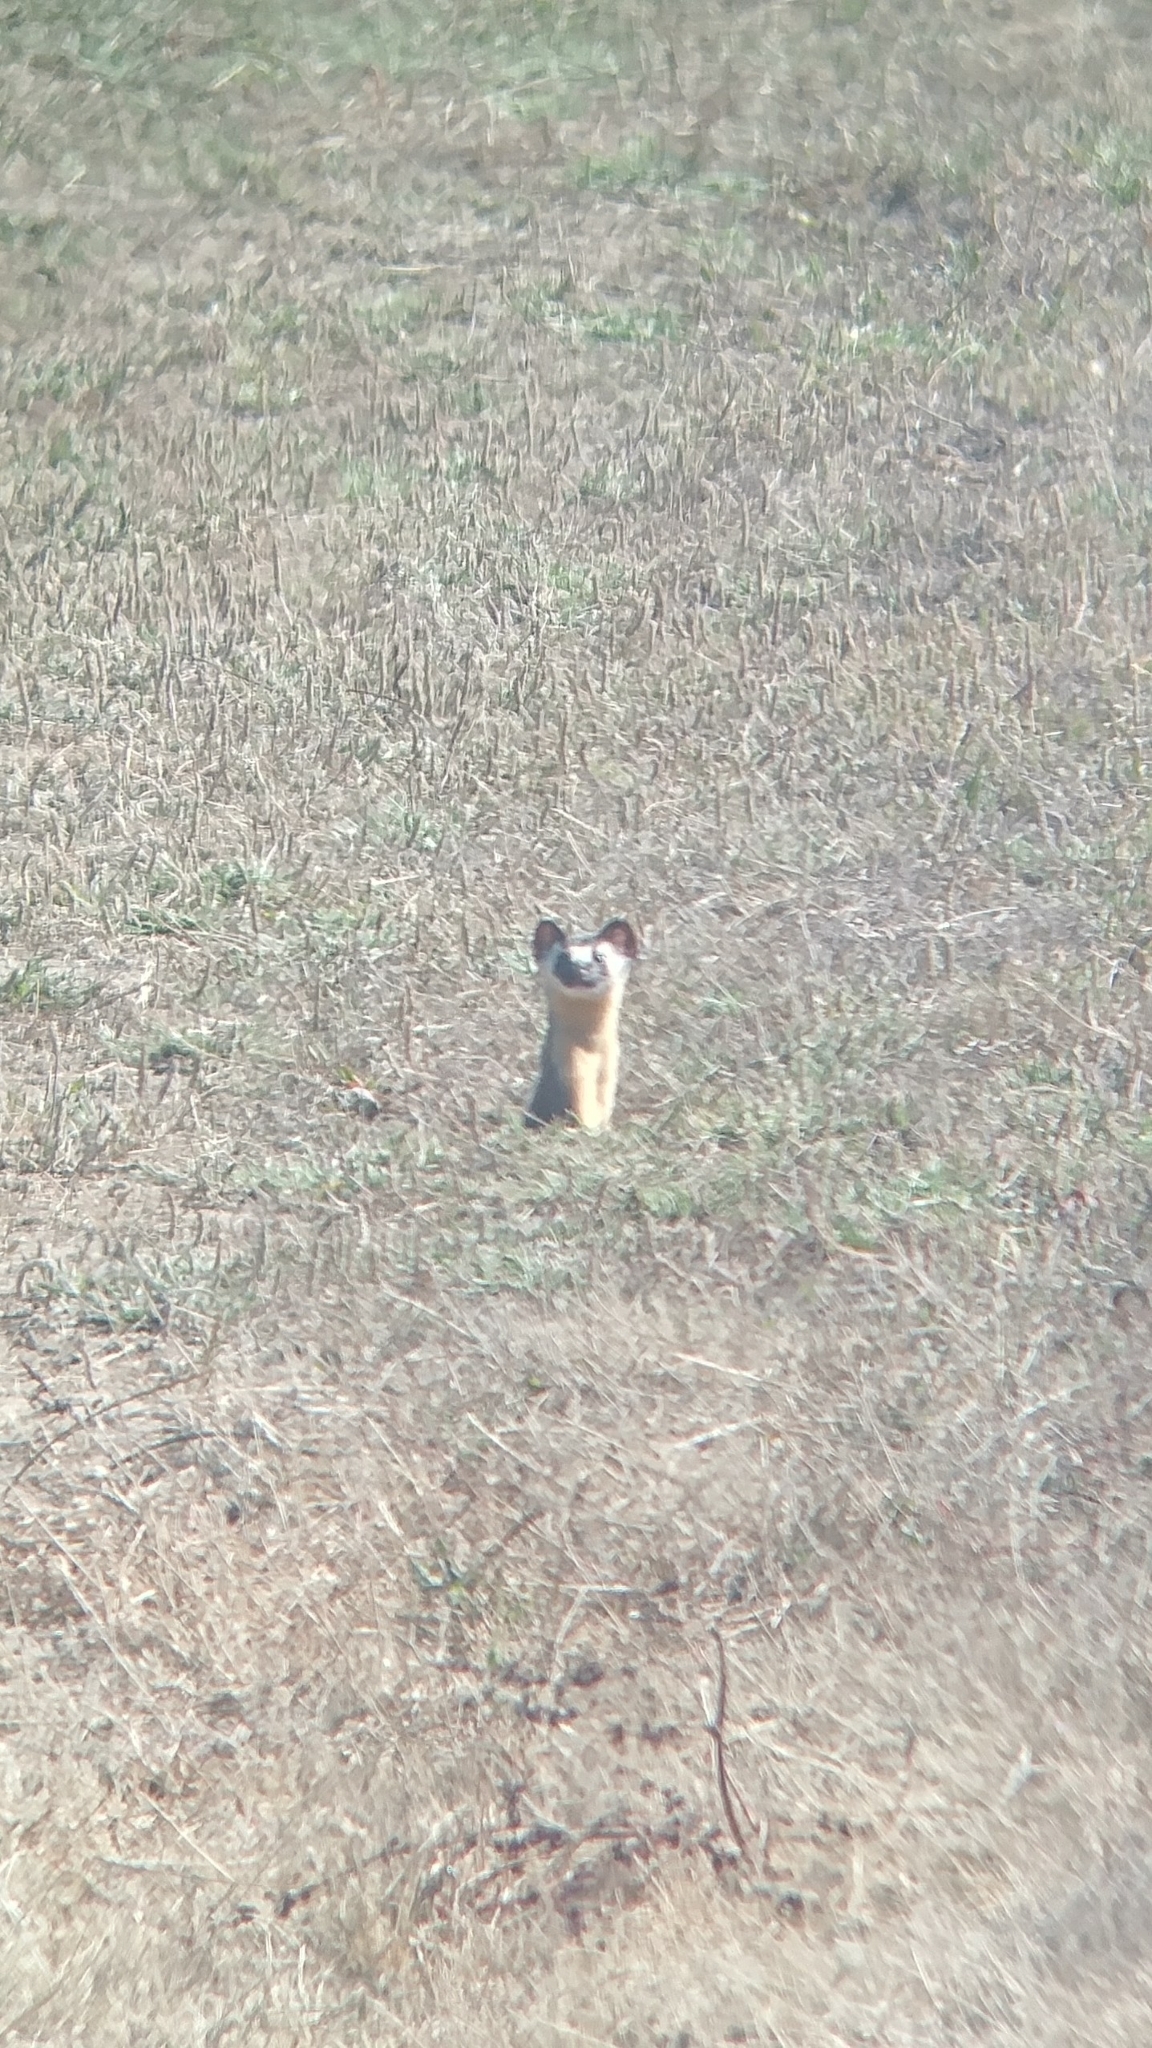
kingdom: Animalia
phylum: Chordata
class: Mammalia
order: Carnivora
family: Mustelidae
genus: Mustela
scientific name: Mustela
